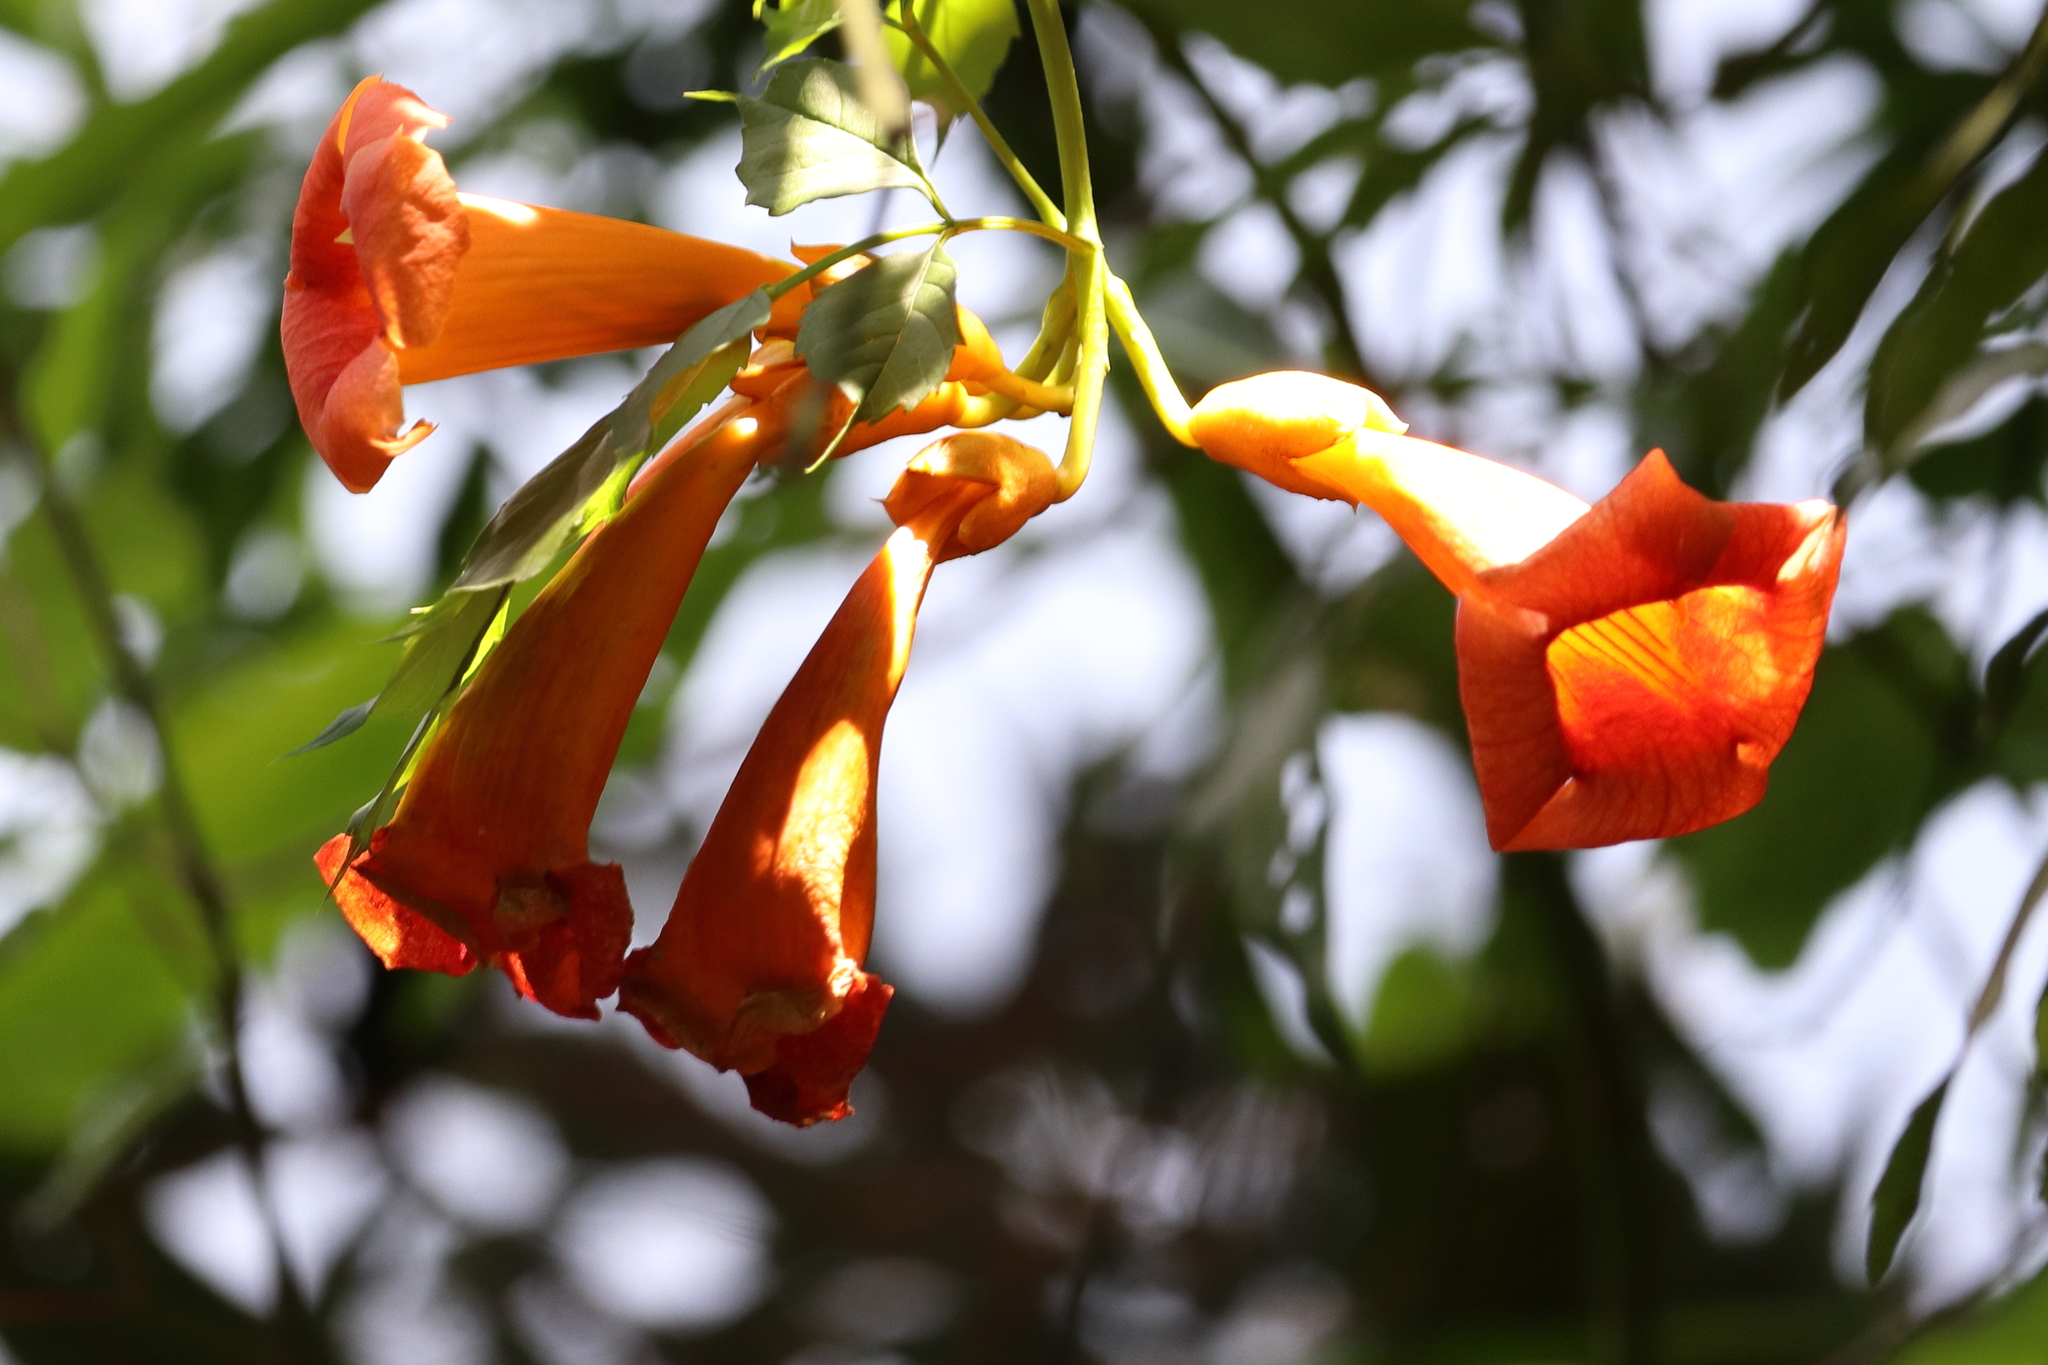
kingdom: Plantae
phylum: Tracheophyta
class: Magnoliopsida
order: Lamiales
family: Bignoniaceae
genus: Campsis
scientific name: Campsis radicans
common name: Trumpet-creeper
